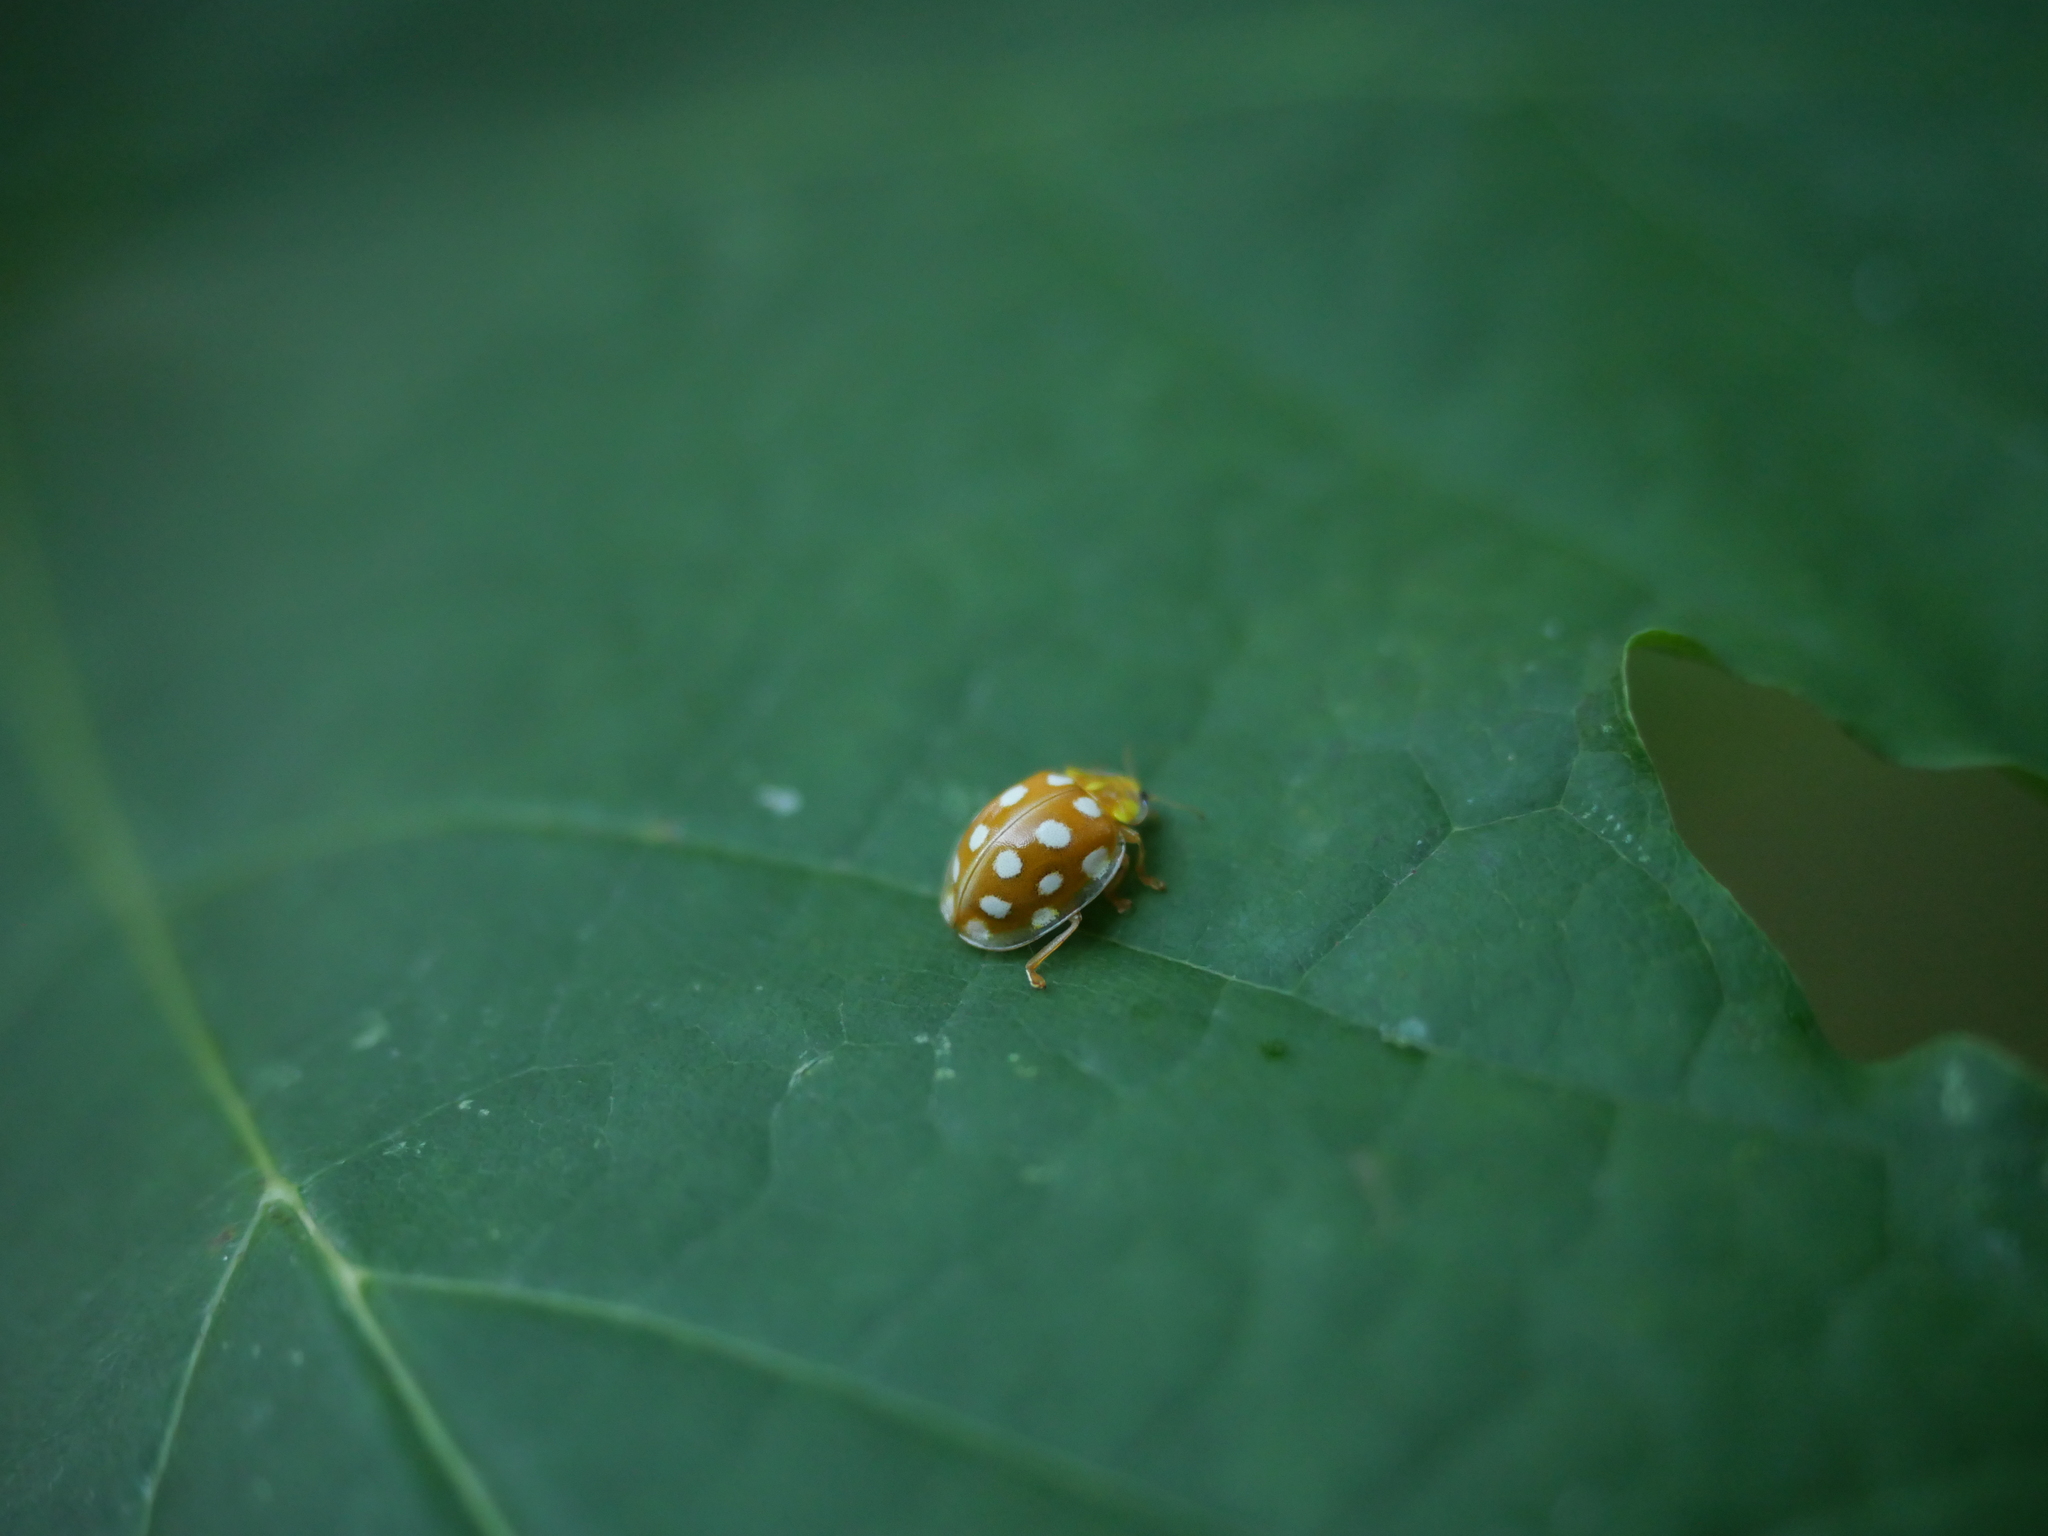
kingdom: Animalia
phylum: Arthropoda
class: Insecta
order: Coleoptera
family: Coccinellidae
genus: Halyzia
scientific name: Halyzia sedecimguttata
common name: Orange ladybird
